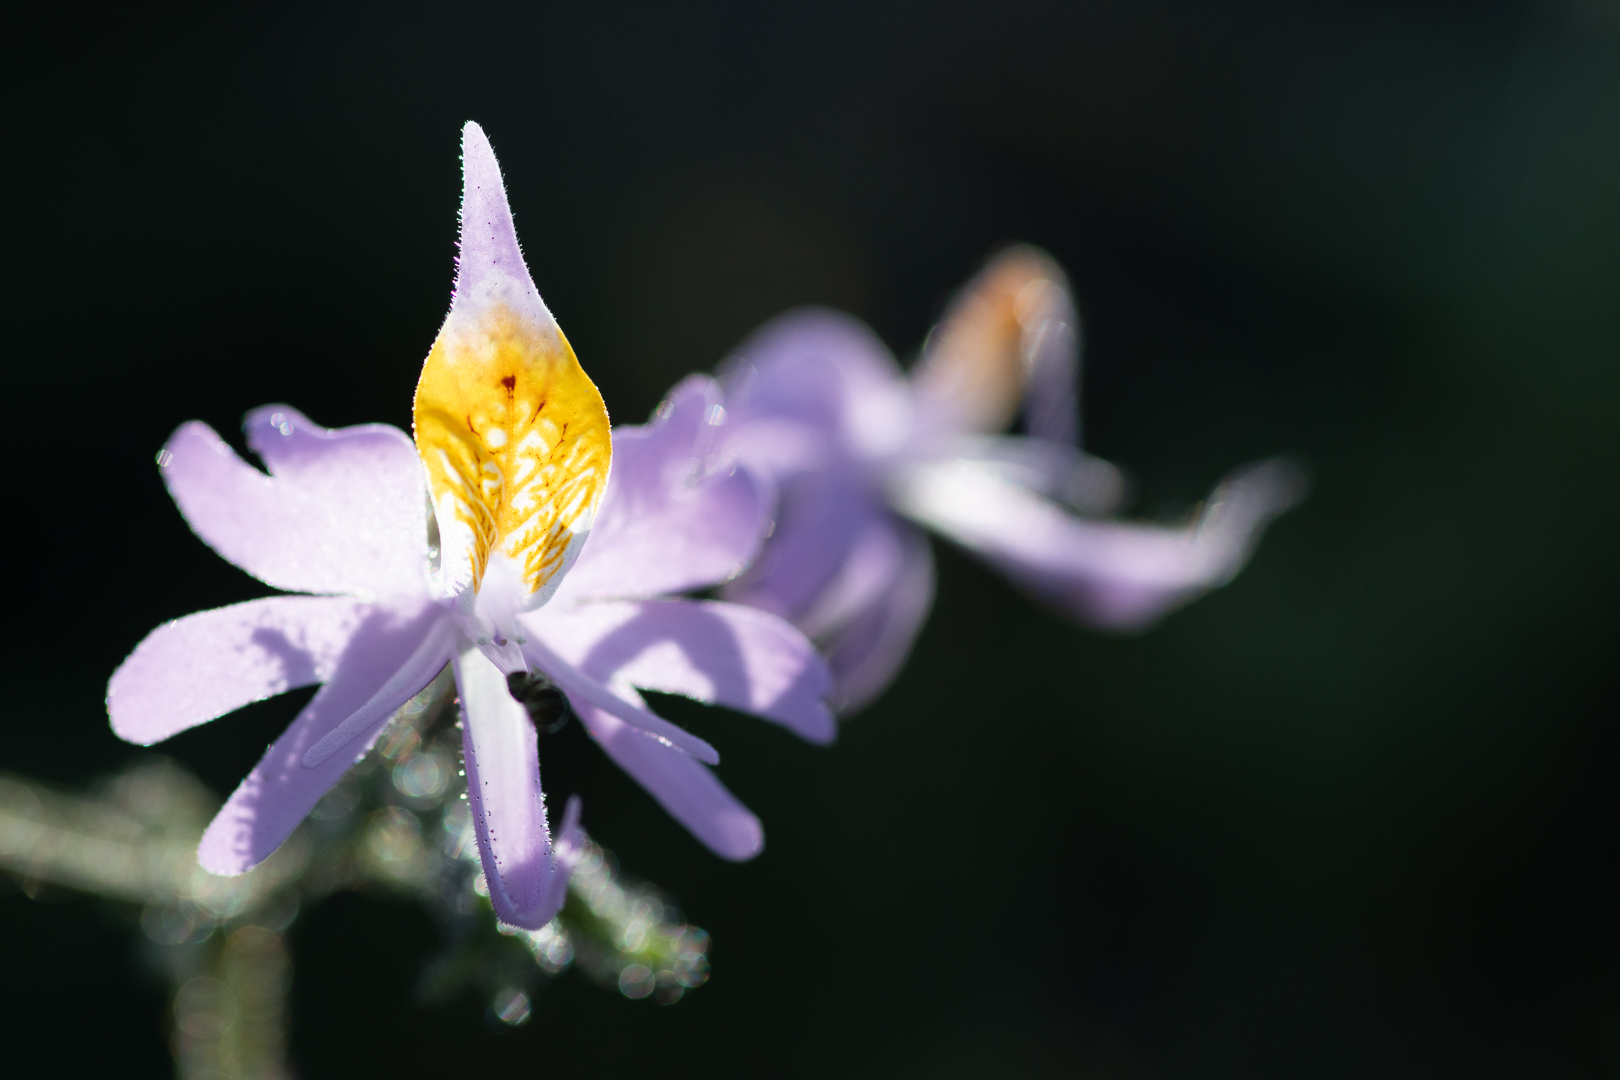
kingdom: Plantae
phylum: Tracheophyta
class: Magnoliopsida
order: Solanales
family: Solanaceae
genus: Schizanthus
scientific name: Schizanthus hookeri
